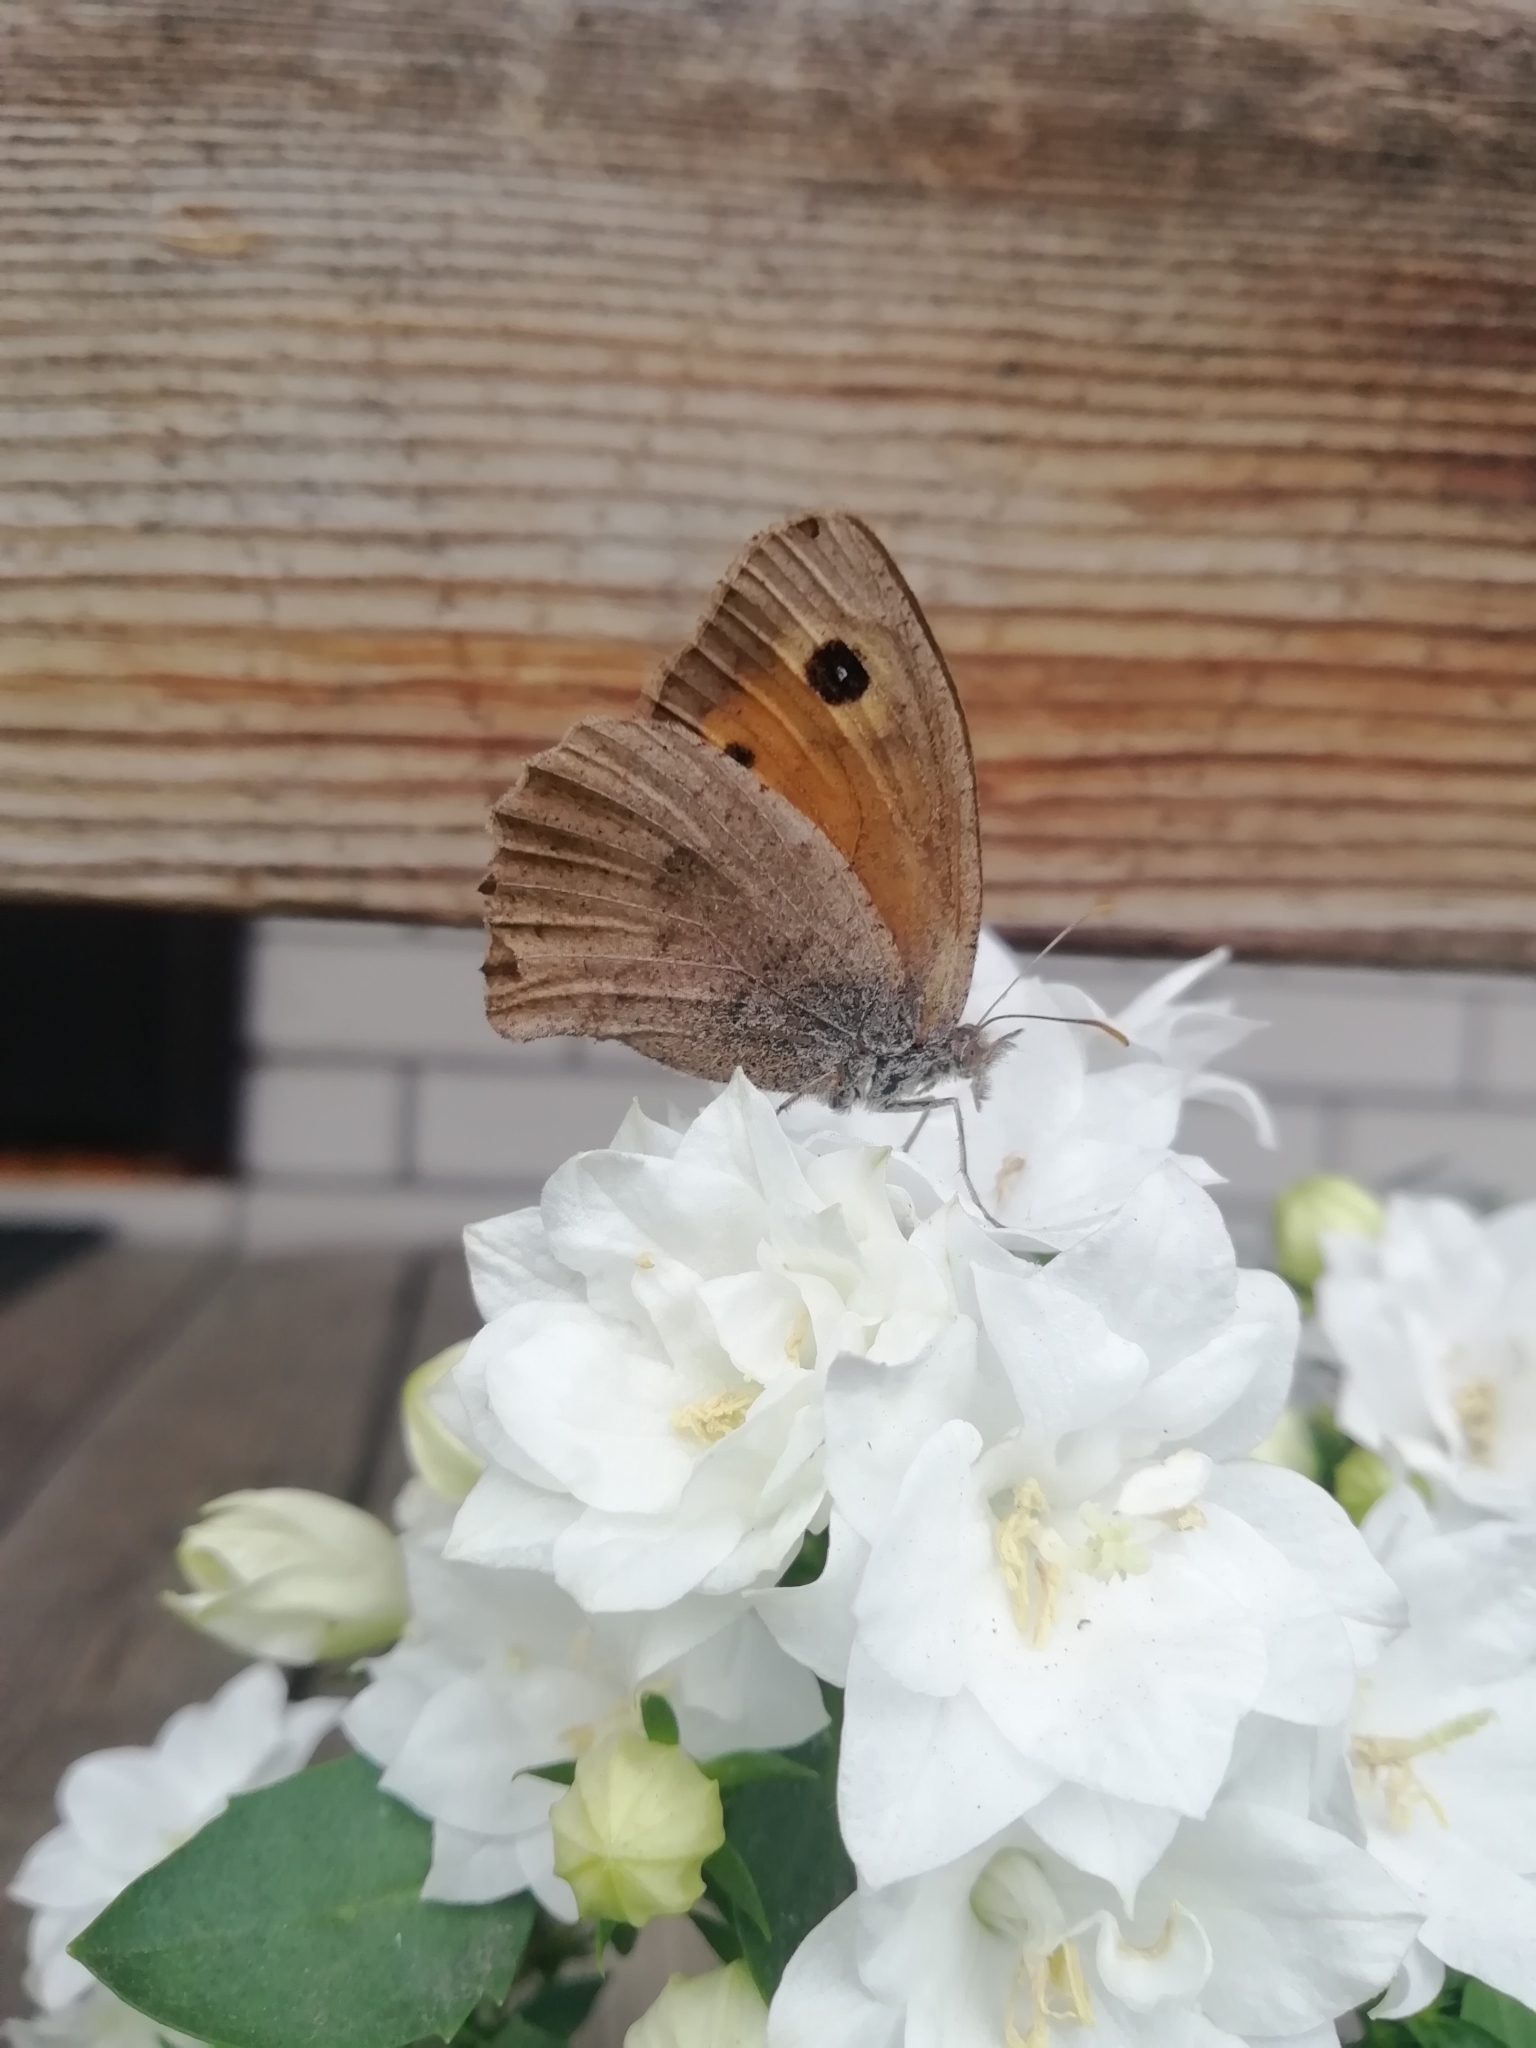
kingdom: Animalia
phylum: Arthropoda
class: Insecta
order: Lepidoptera
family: Nymphalidae
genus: Hyponephele
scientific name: Hyponephele lycaon
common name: Dusky meadow brown
